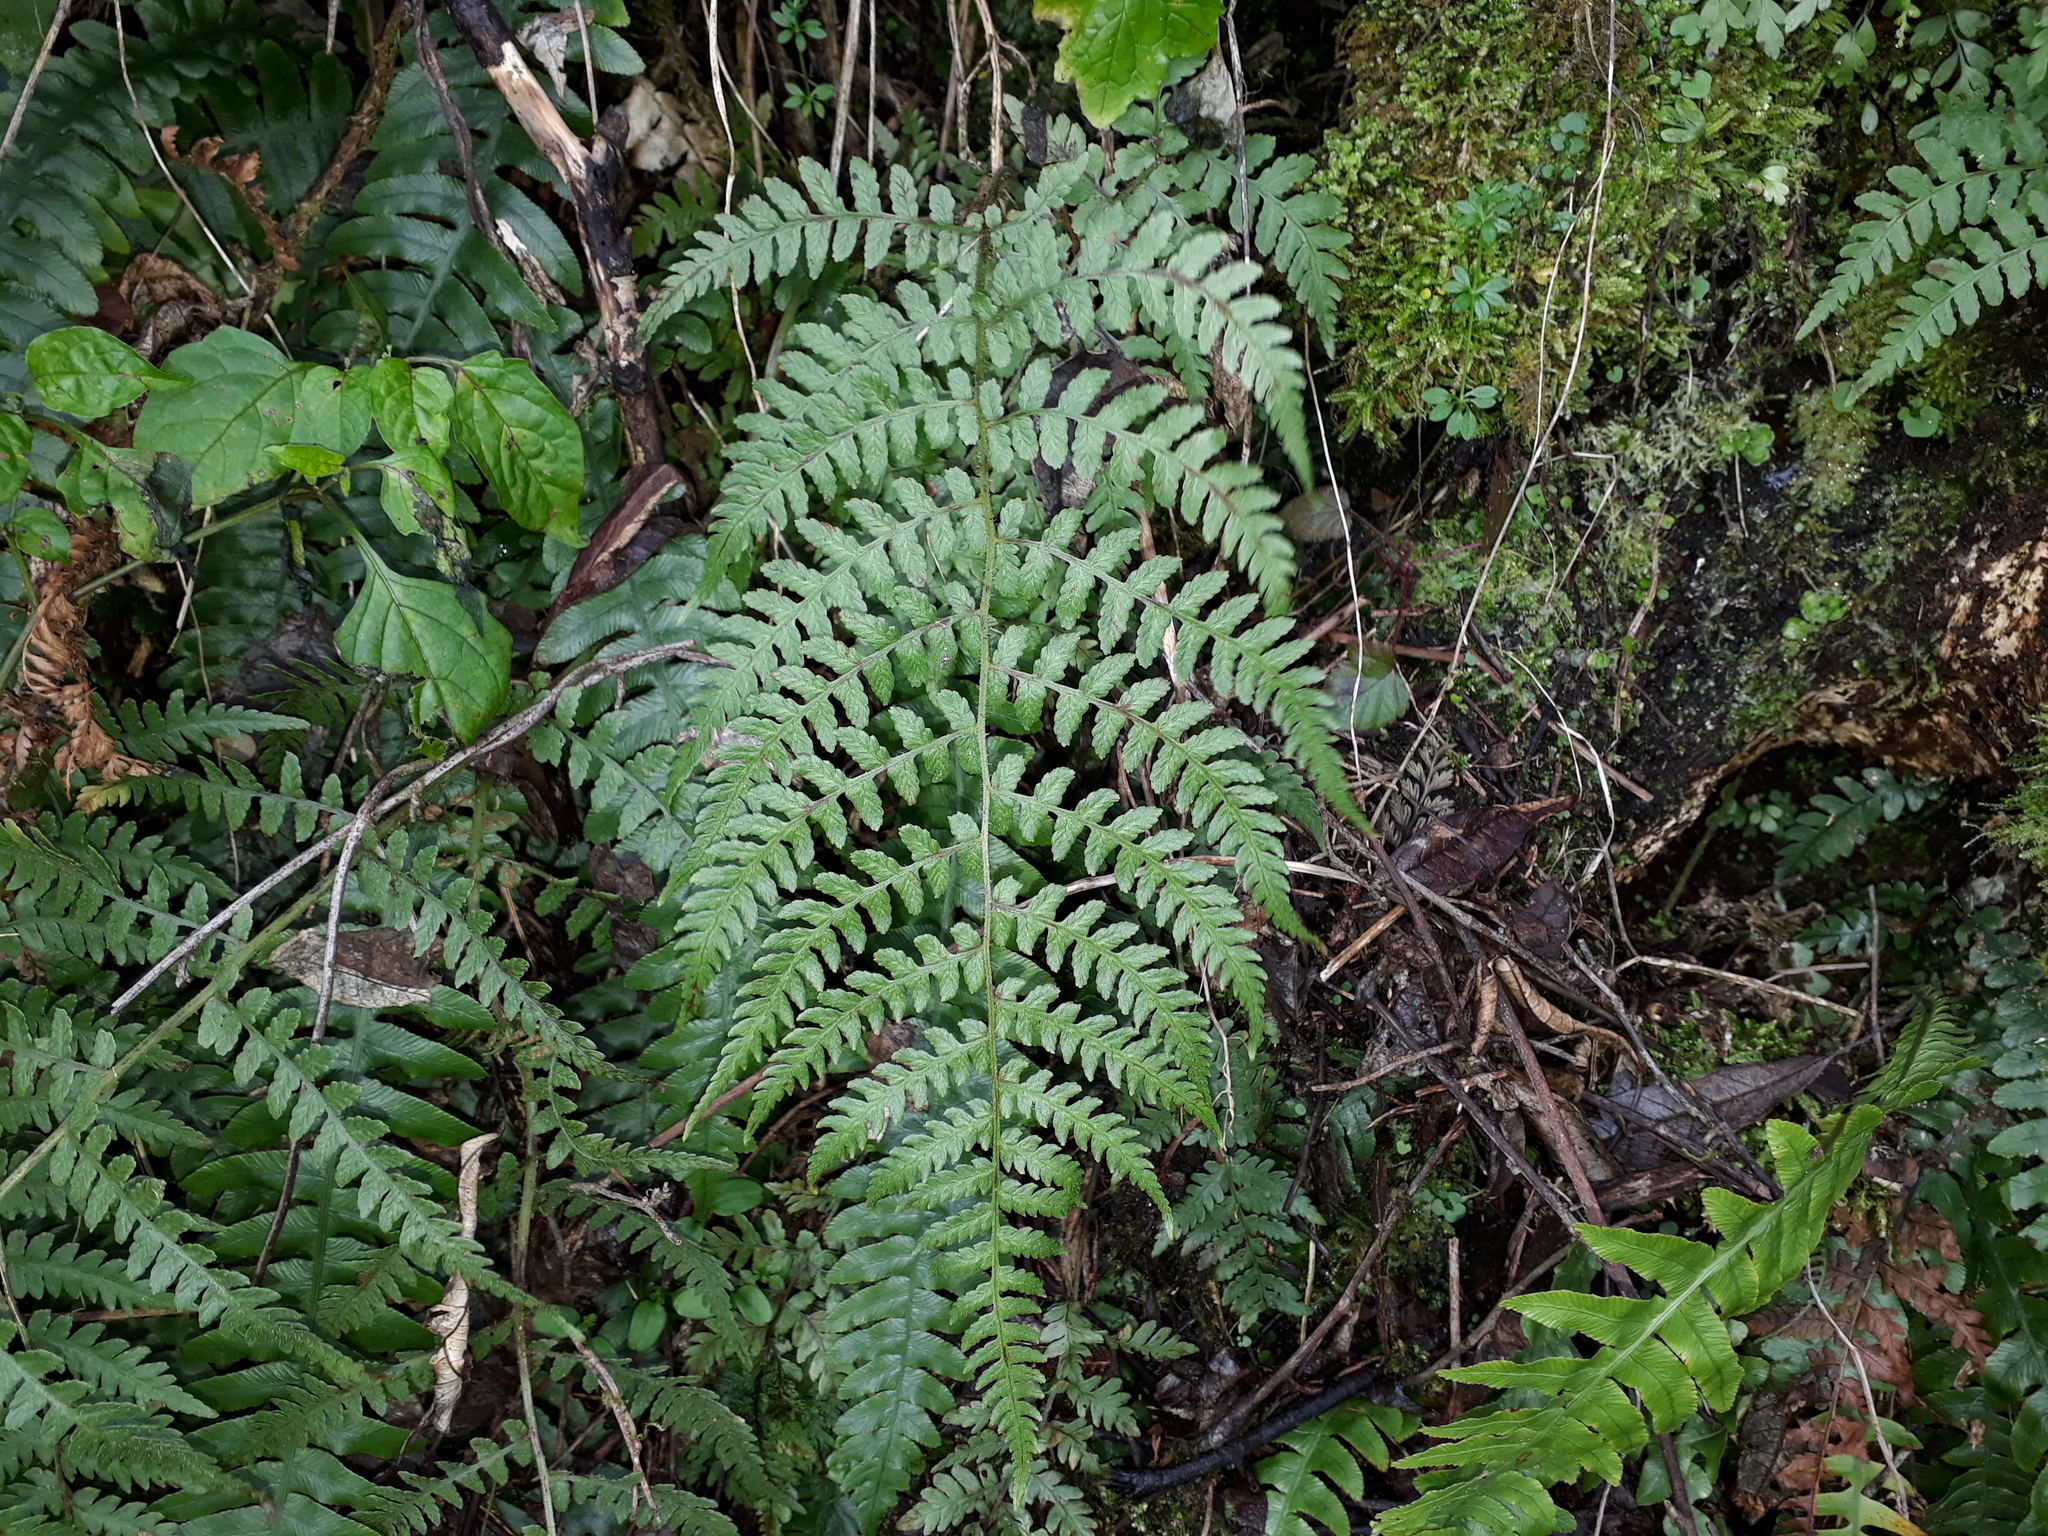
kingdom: Plantae
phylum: Tracheophyta
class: Polypodiopsida
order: Polypodiales
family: Athyriaceae
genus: Deparia
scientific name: Deparia petersenii
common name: Japanese false spleenwort
